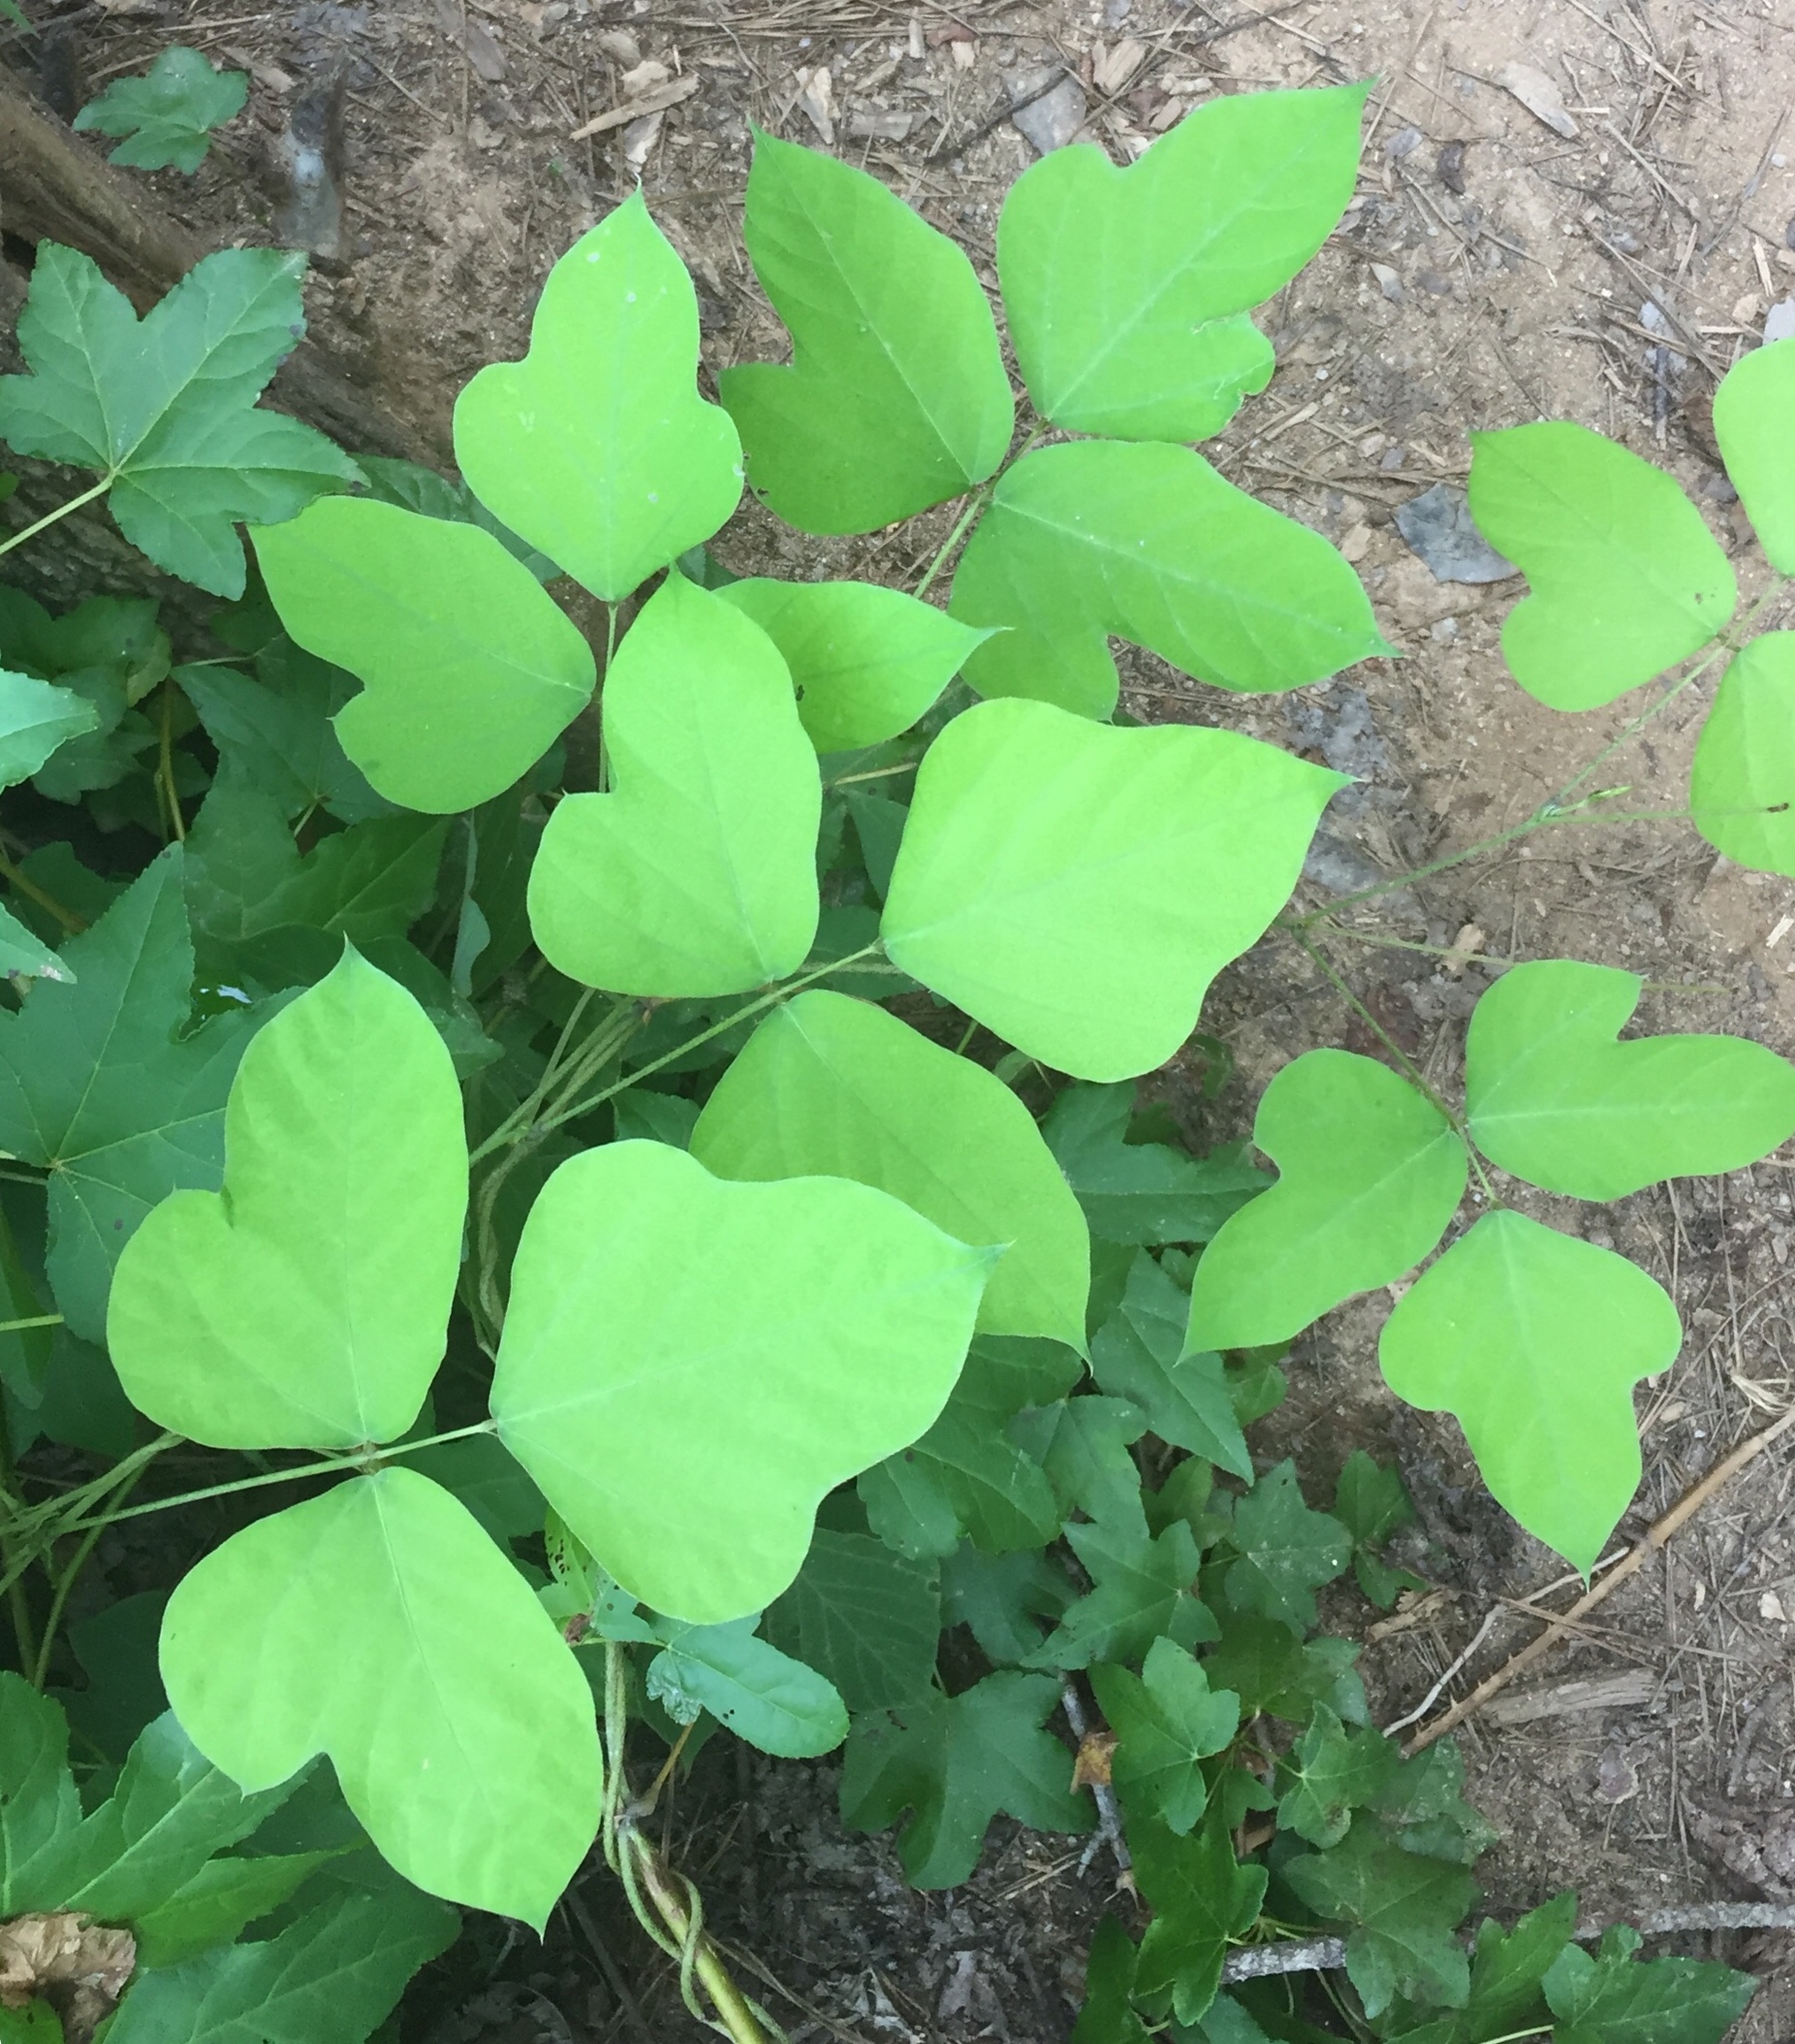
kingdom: Plantae
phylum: Tracheophyta
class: Magnoliopsida
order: Fabales
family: Fabaceae
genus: Pueraria
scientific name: Pueraria montana
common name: Kudzu
